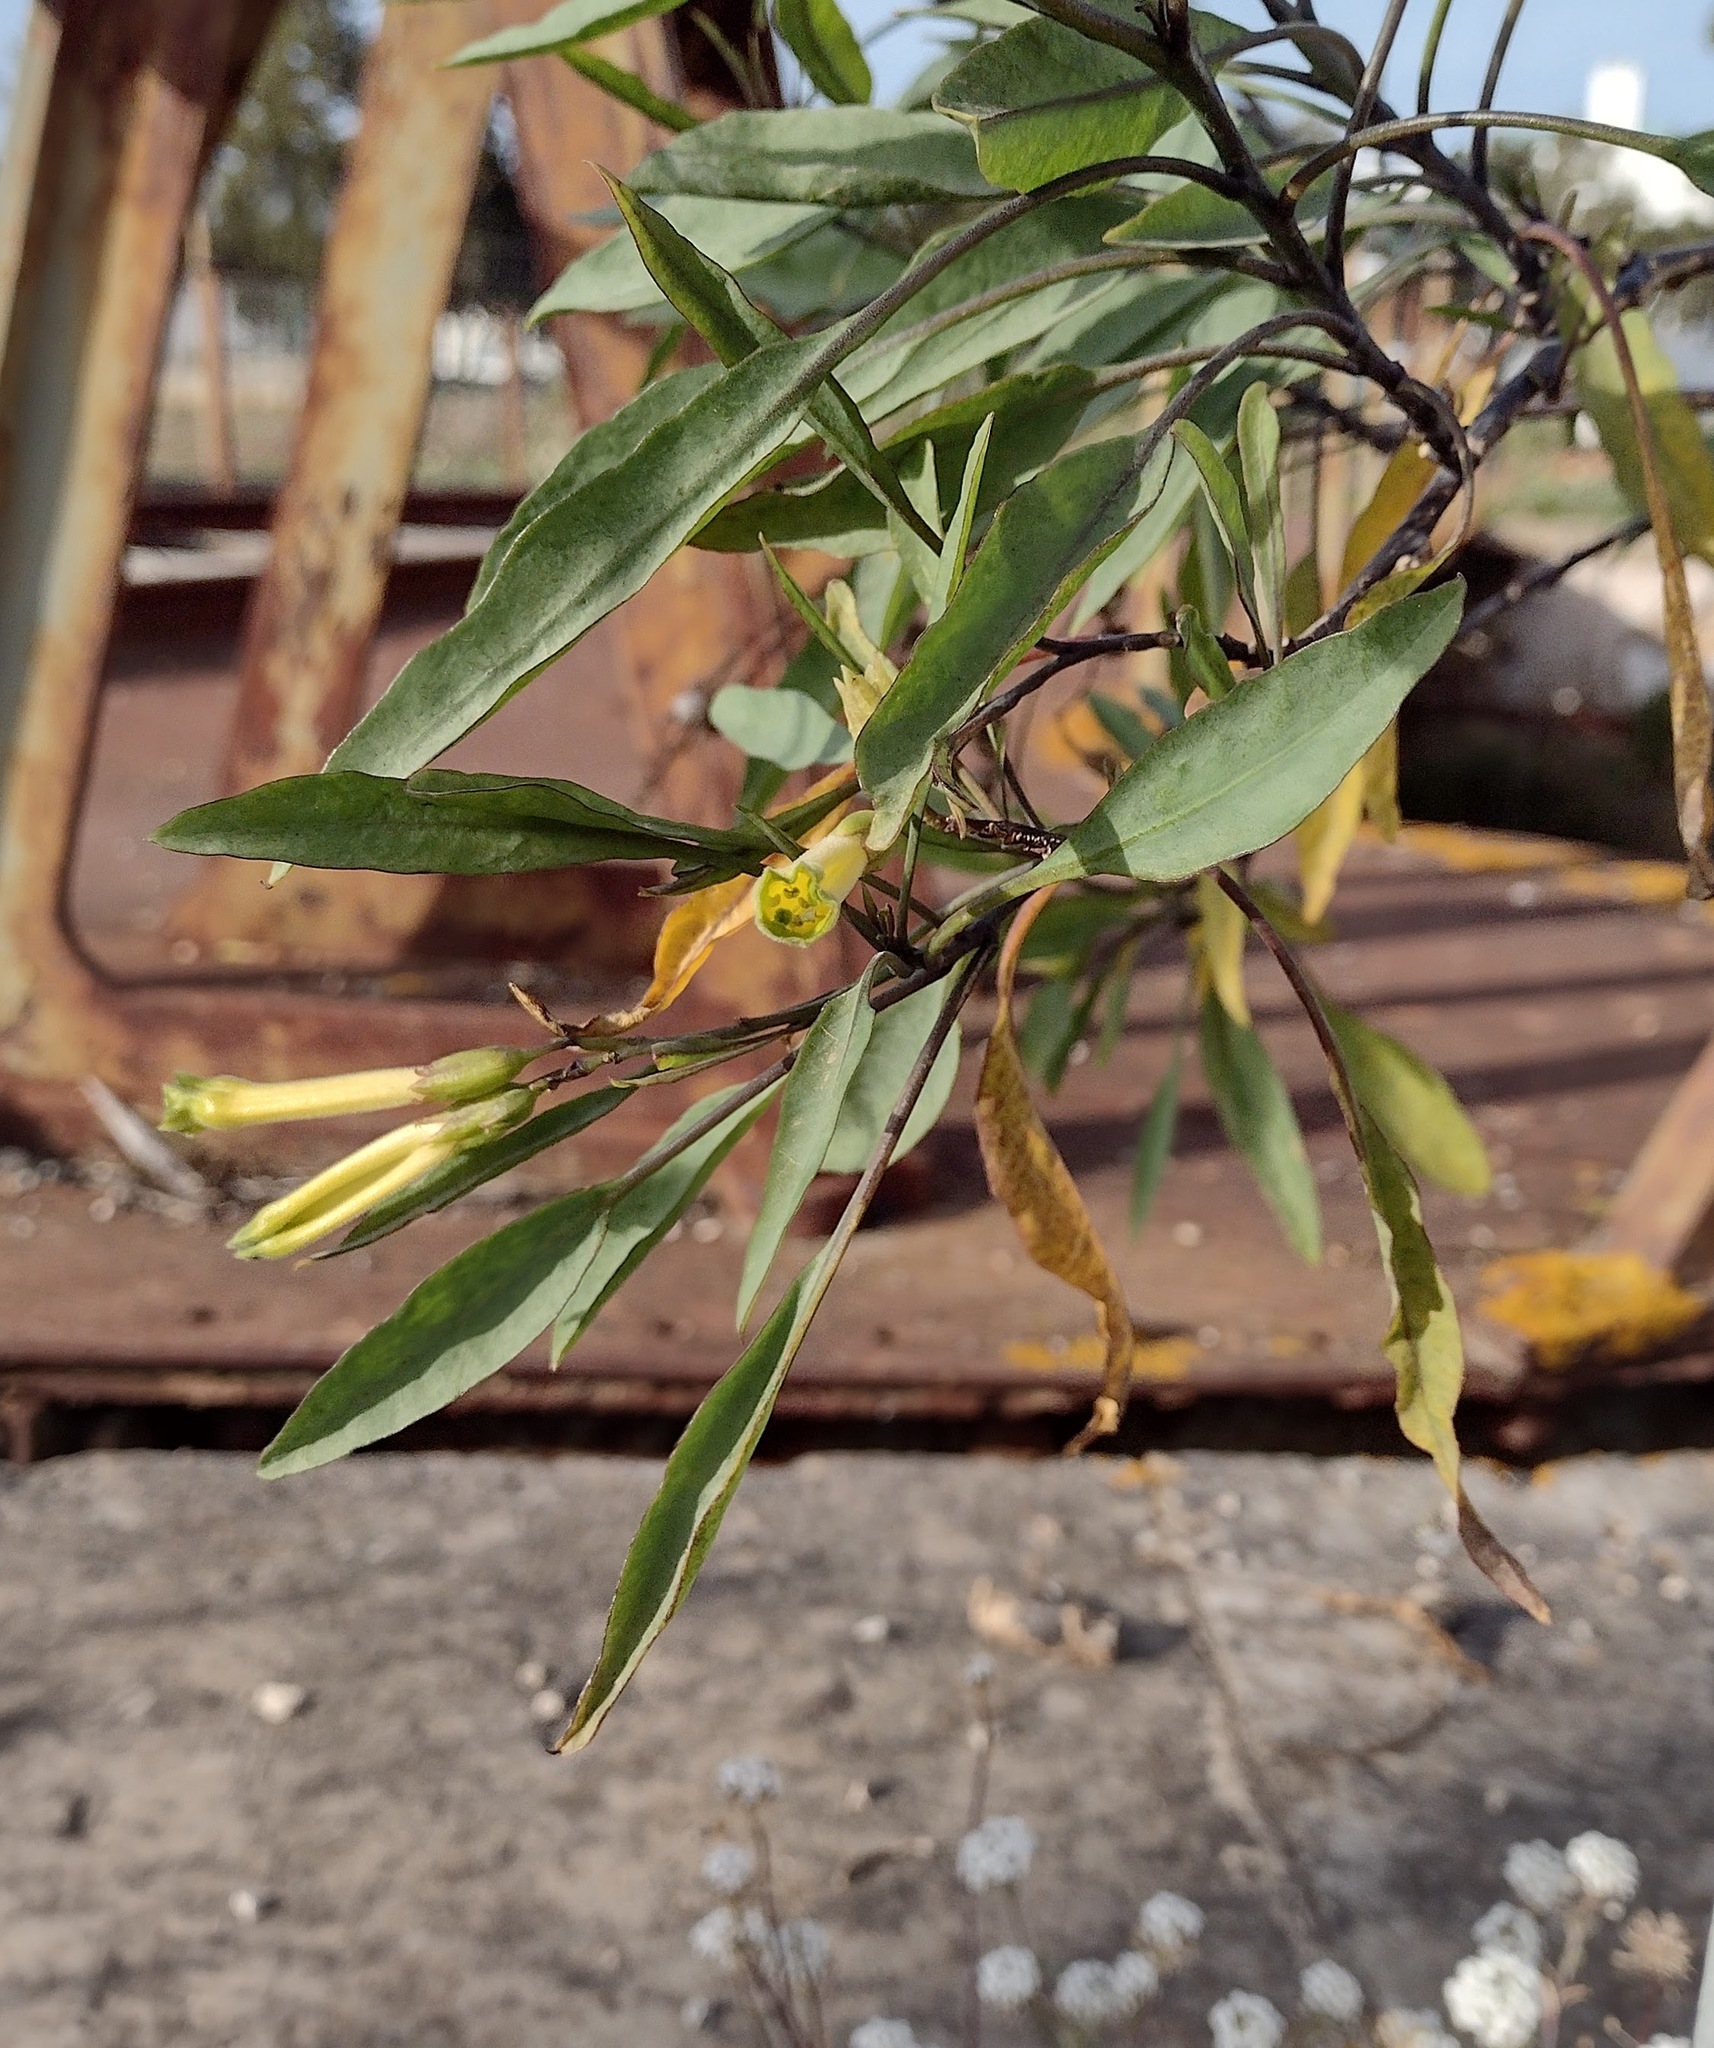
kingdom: Plantae
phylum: Tracheophyta
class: Magnoliopsida
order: Solanales
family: Solanaceae
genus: Nicotiana
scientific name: Nicotiana glauca
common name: Tree tobacco
